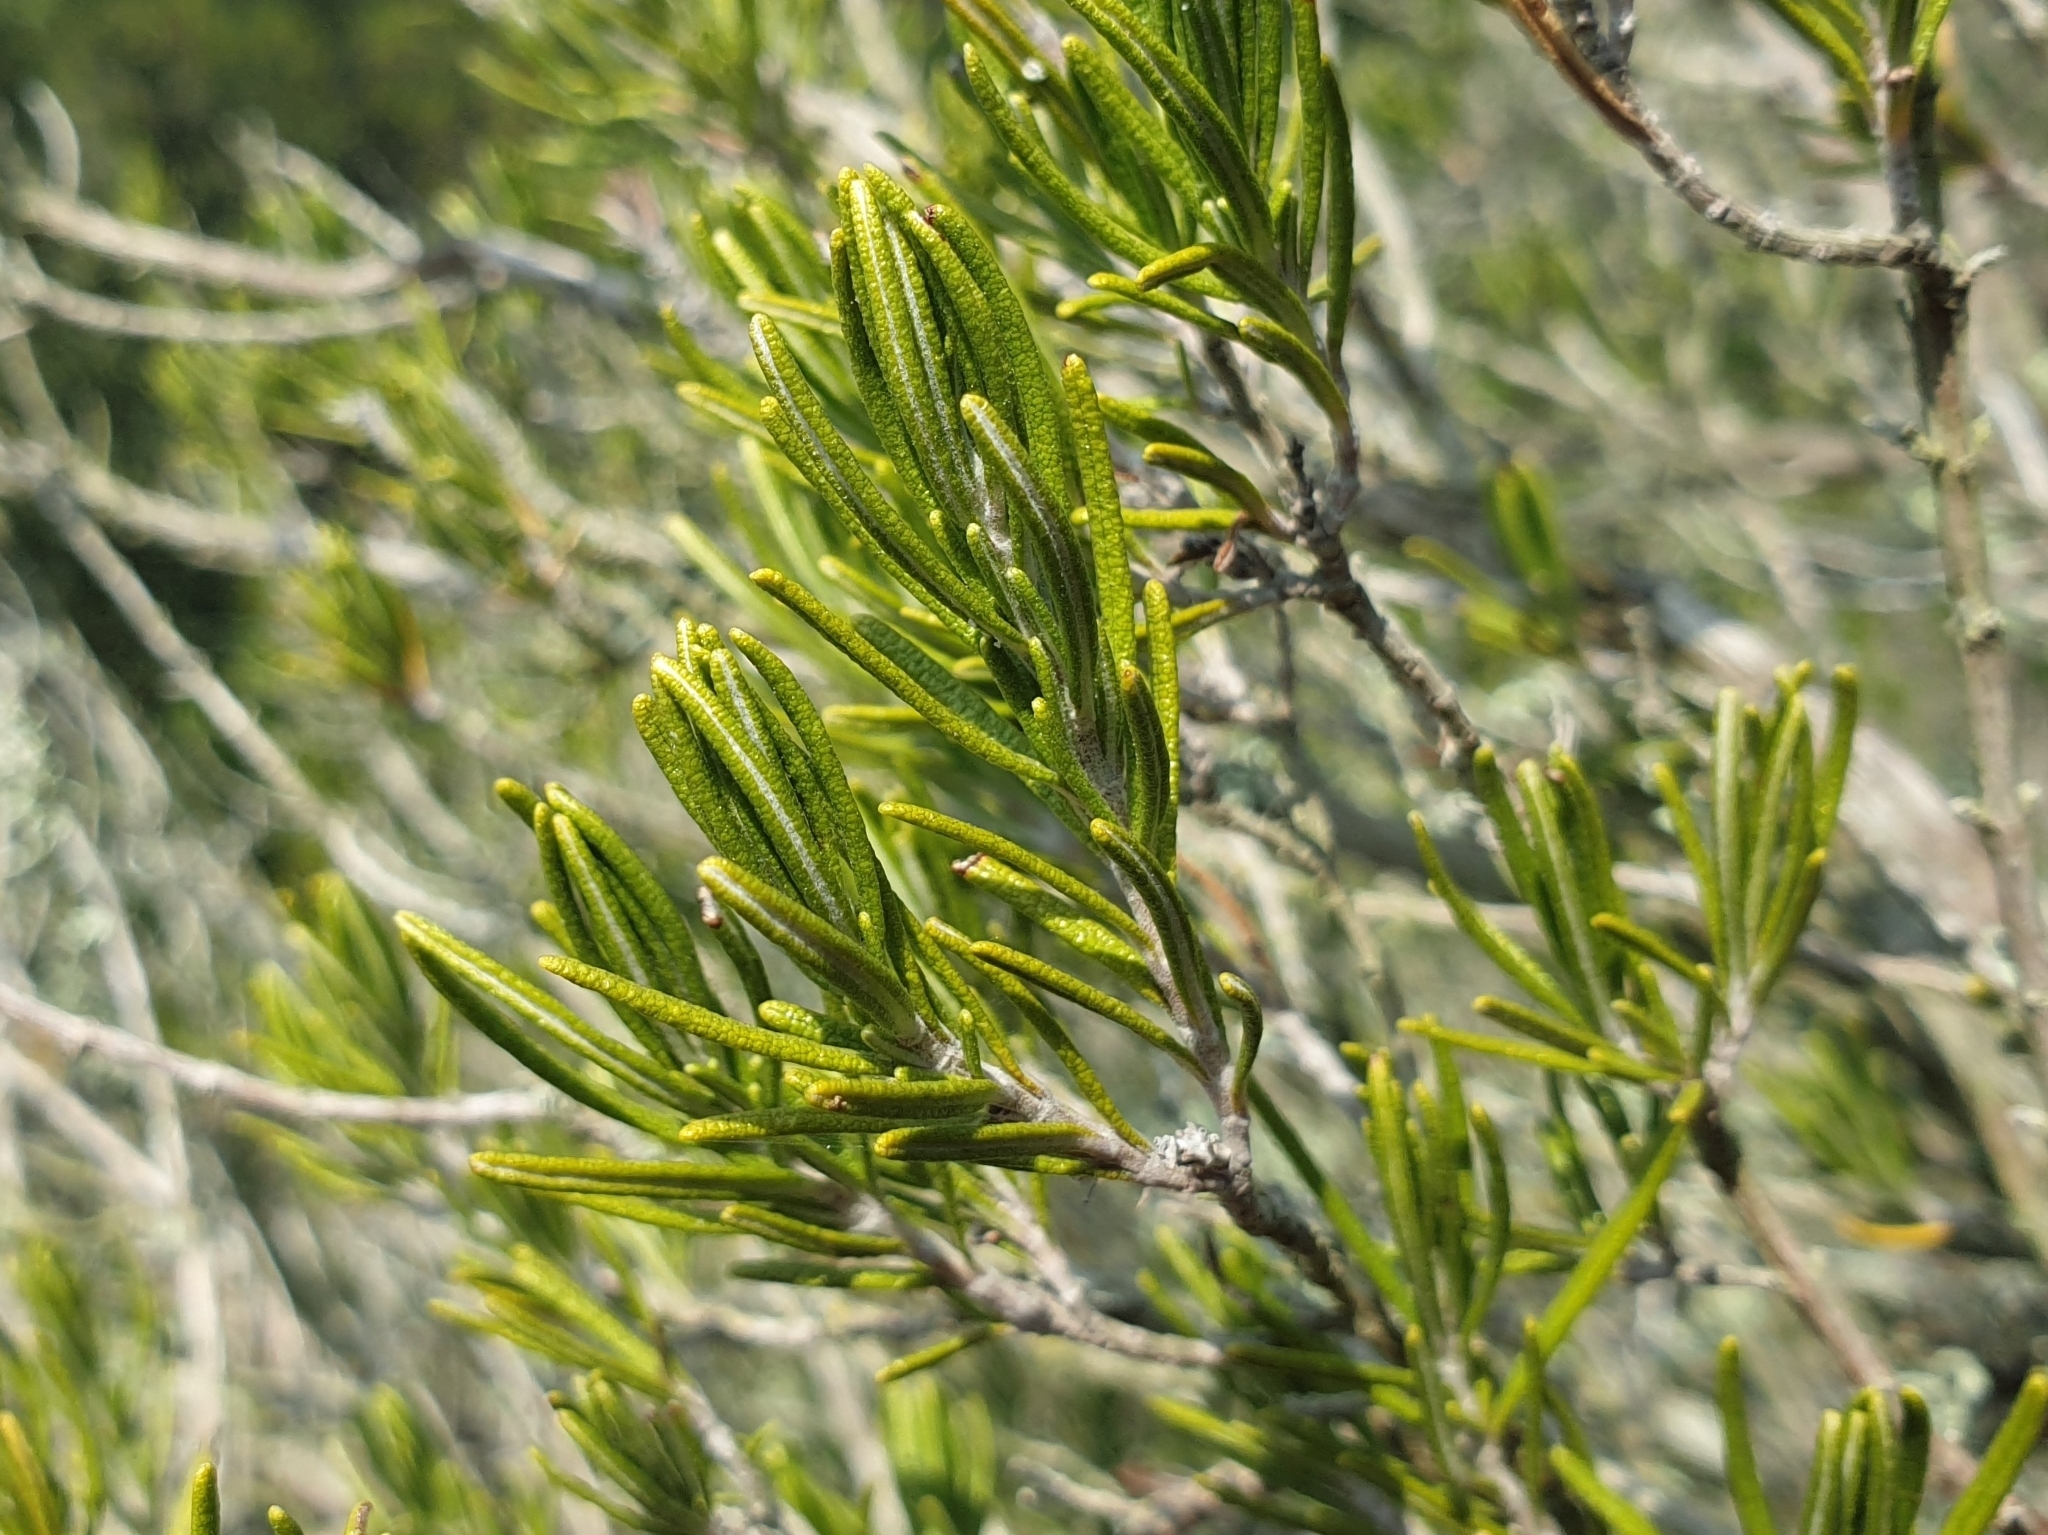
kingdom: Plantae
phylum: Tracheophyta
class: Magnoliopsida
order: Lamiales
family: Lamiaceae
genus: Salvia
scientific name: Salvia rosmarinus
